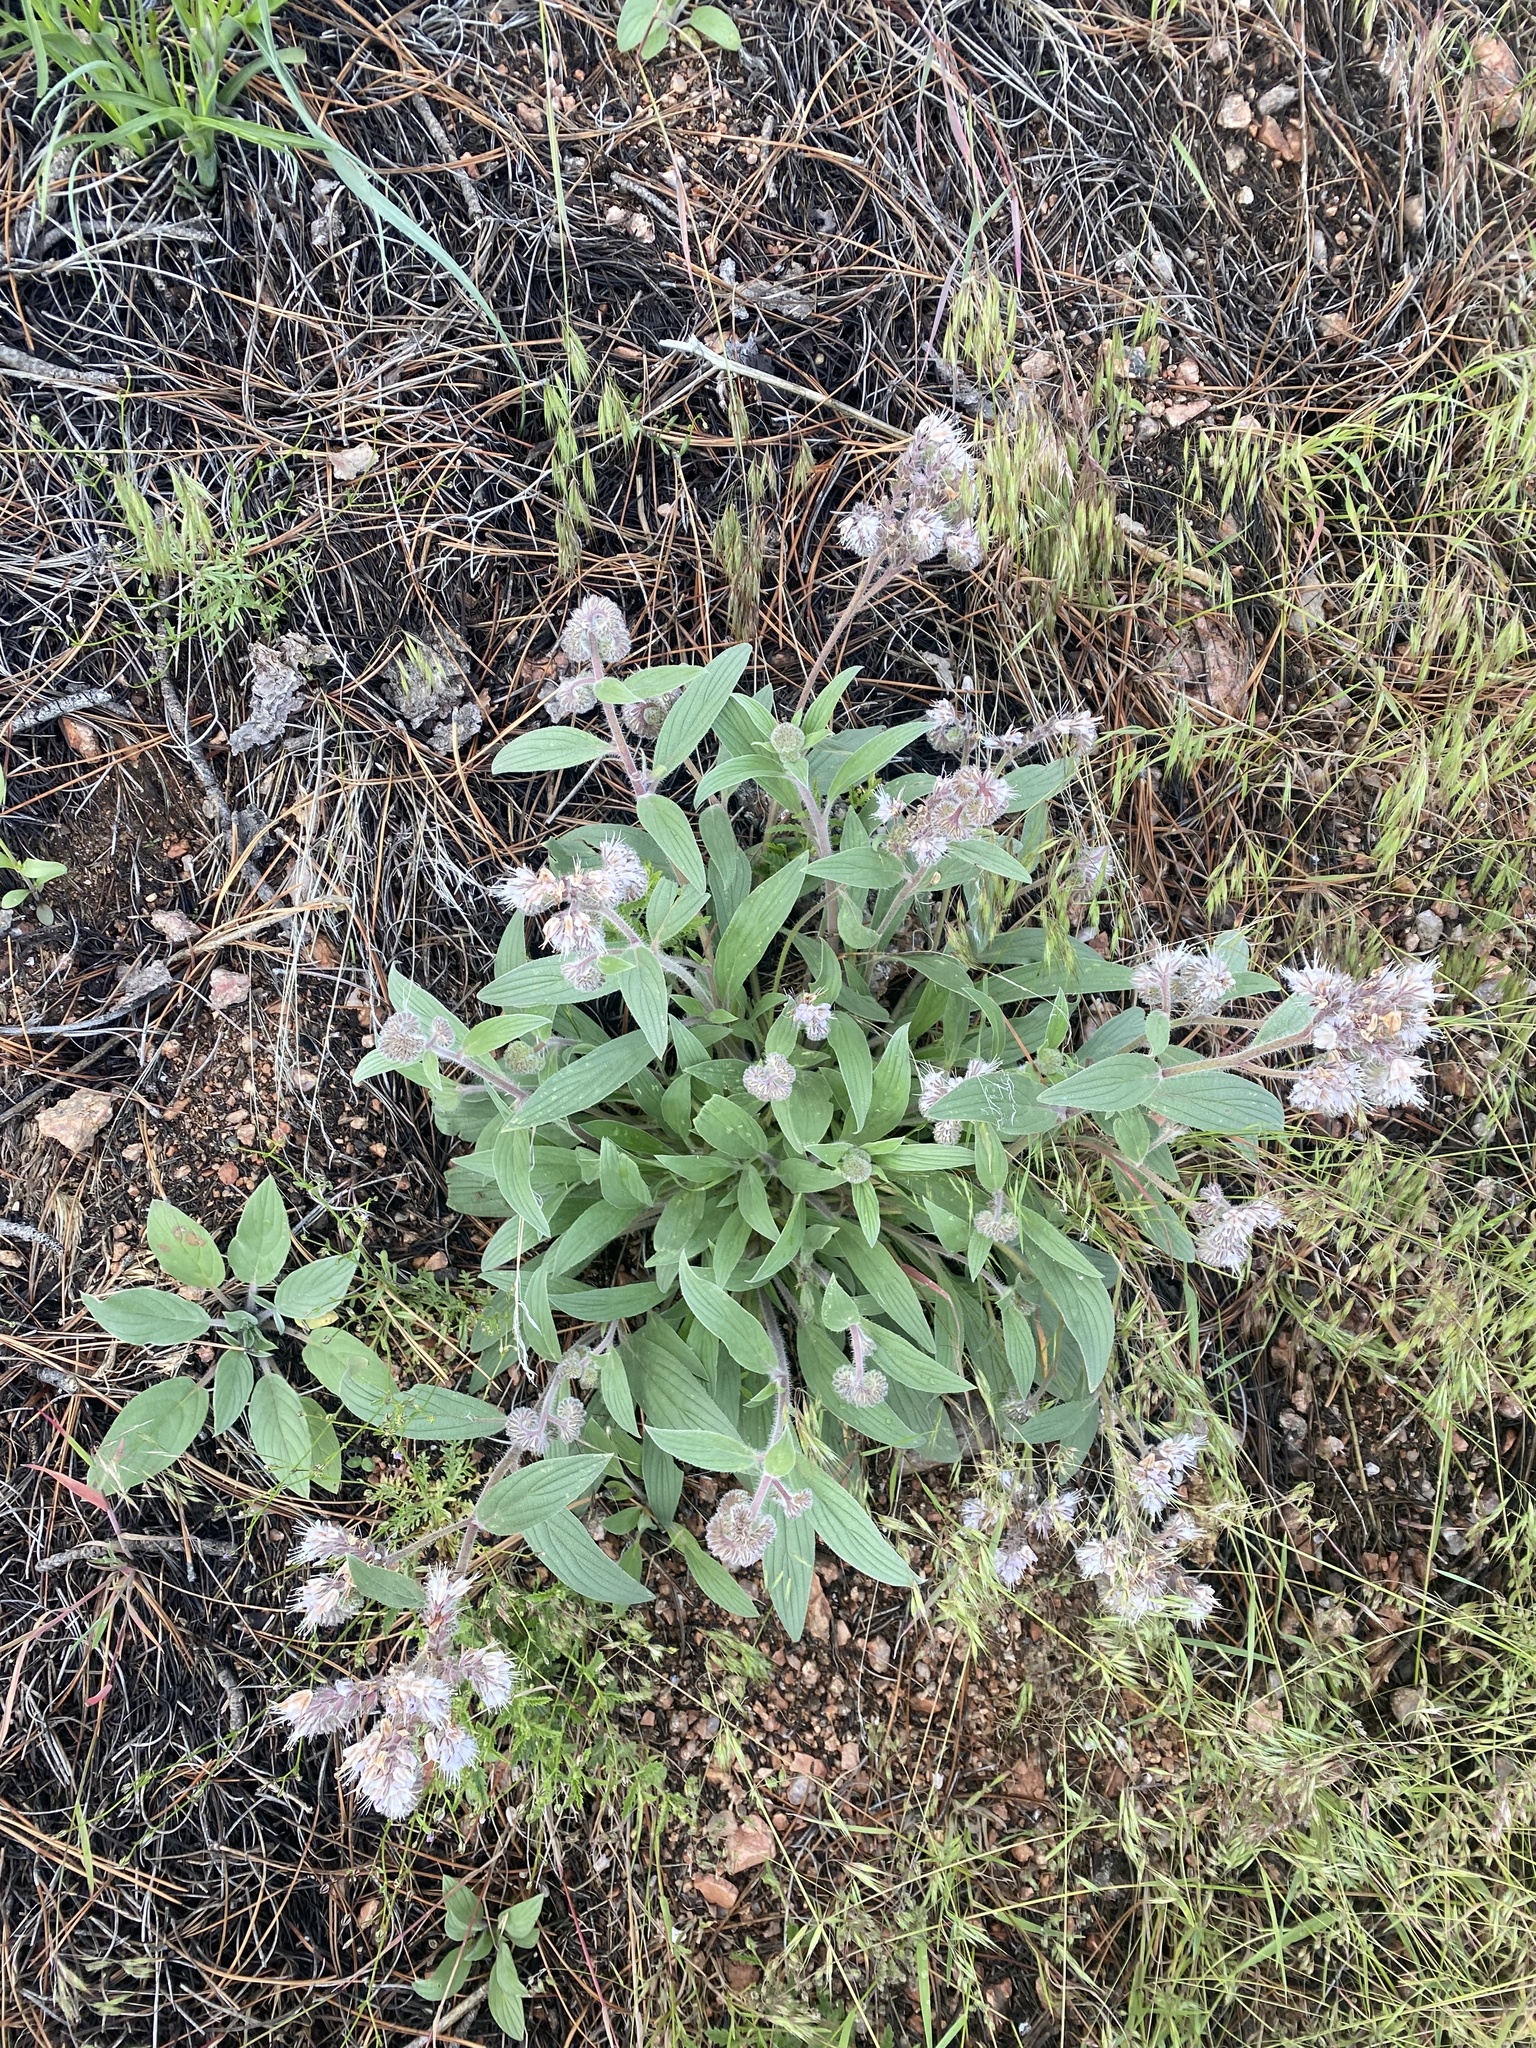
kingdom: Plantae
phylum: Tracheophyta
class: Magnoliopsida
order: Boraginales
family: Hydrophyllaceae
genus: Phacelia
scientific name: Phacelia hastata
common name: Silver-leaved phacelia
